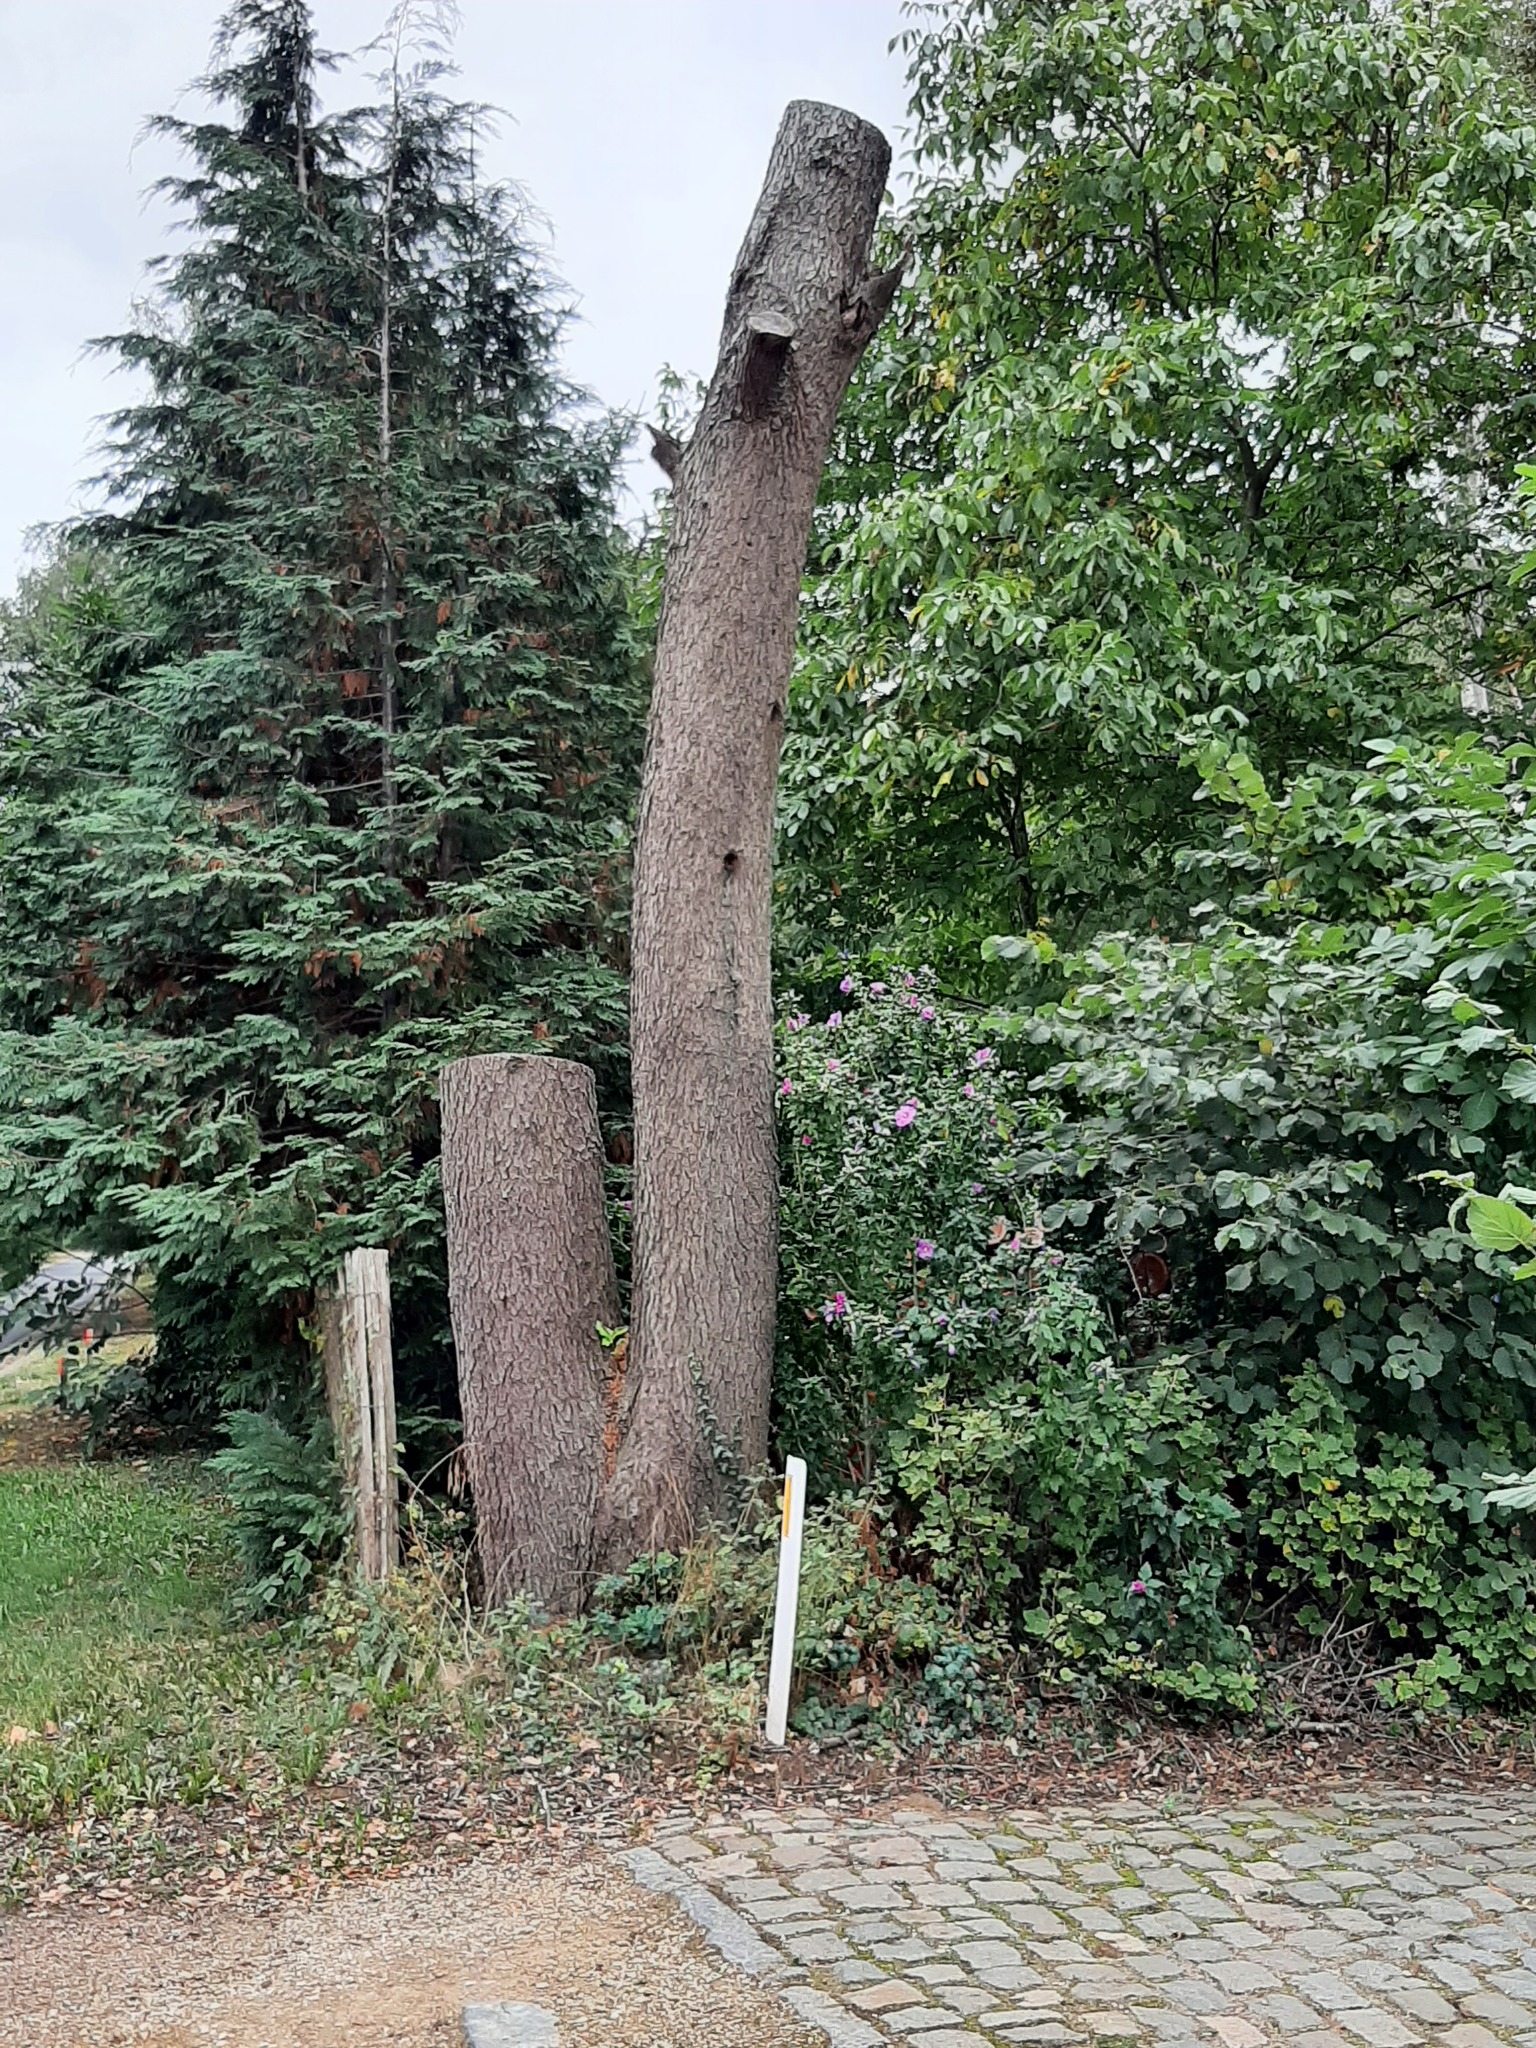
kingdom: Animalia
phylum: Arthropoda
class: Insecta
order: Hymenoptera
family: Vespidae
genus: Vespa
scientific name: Vespa crabro
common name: Hornet
